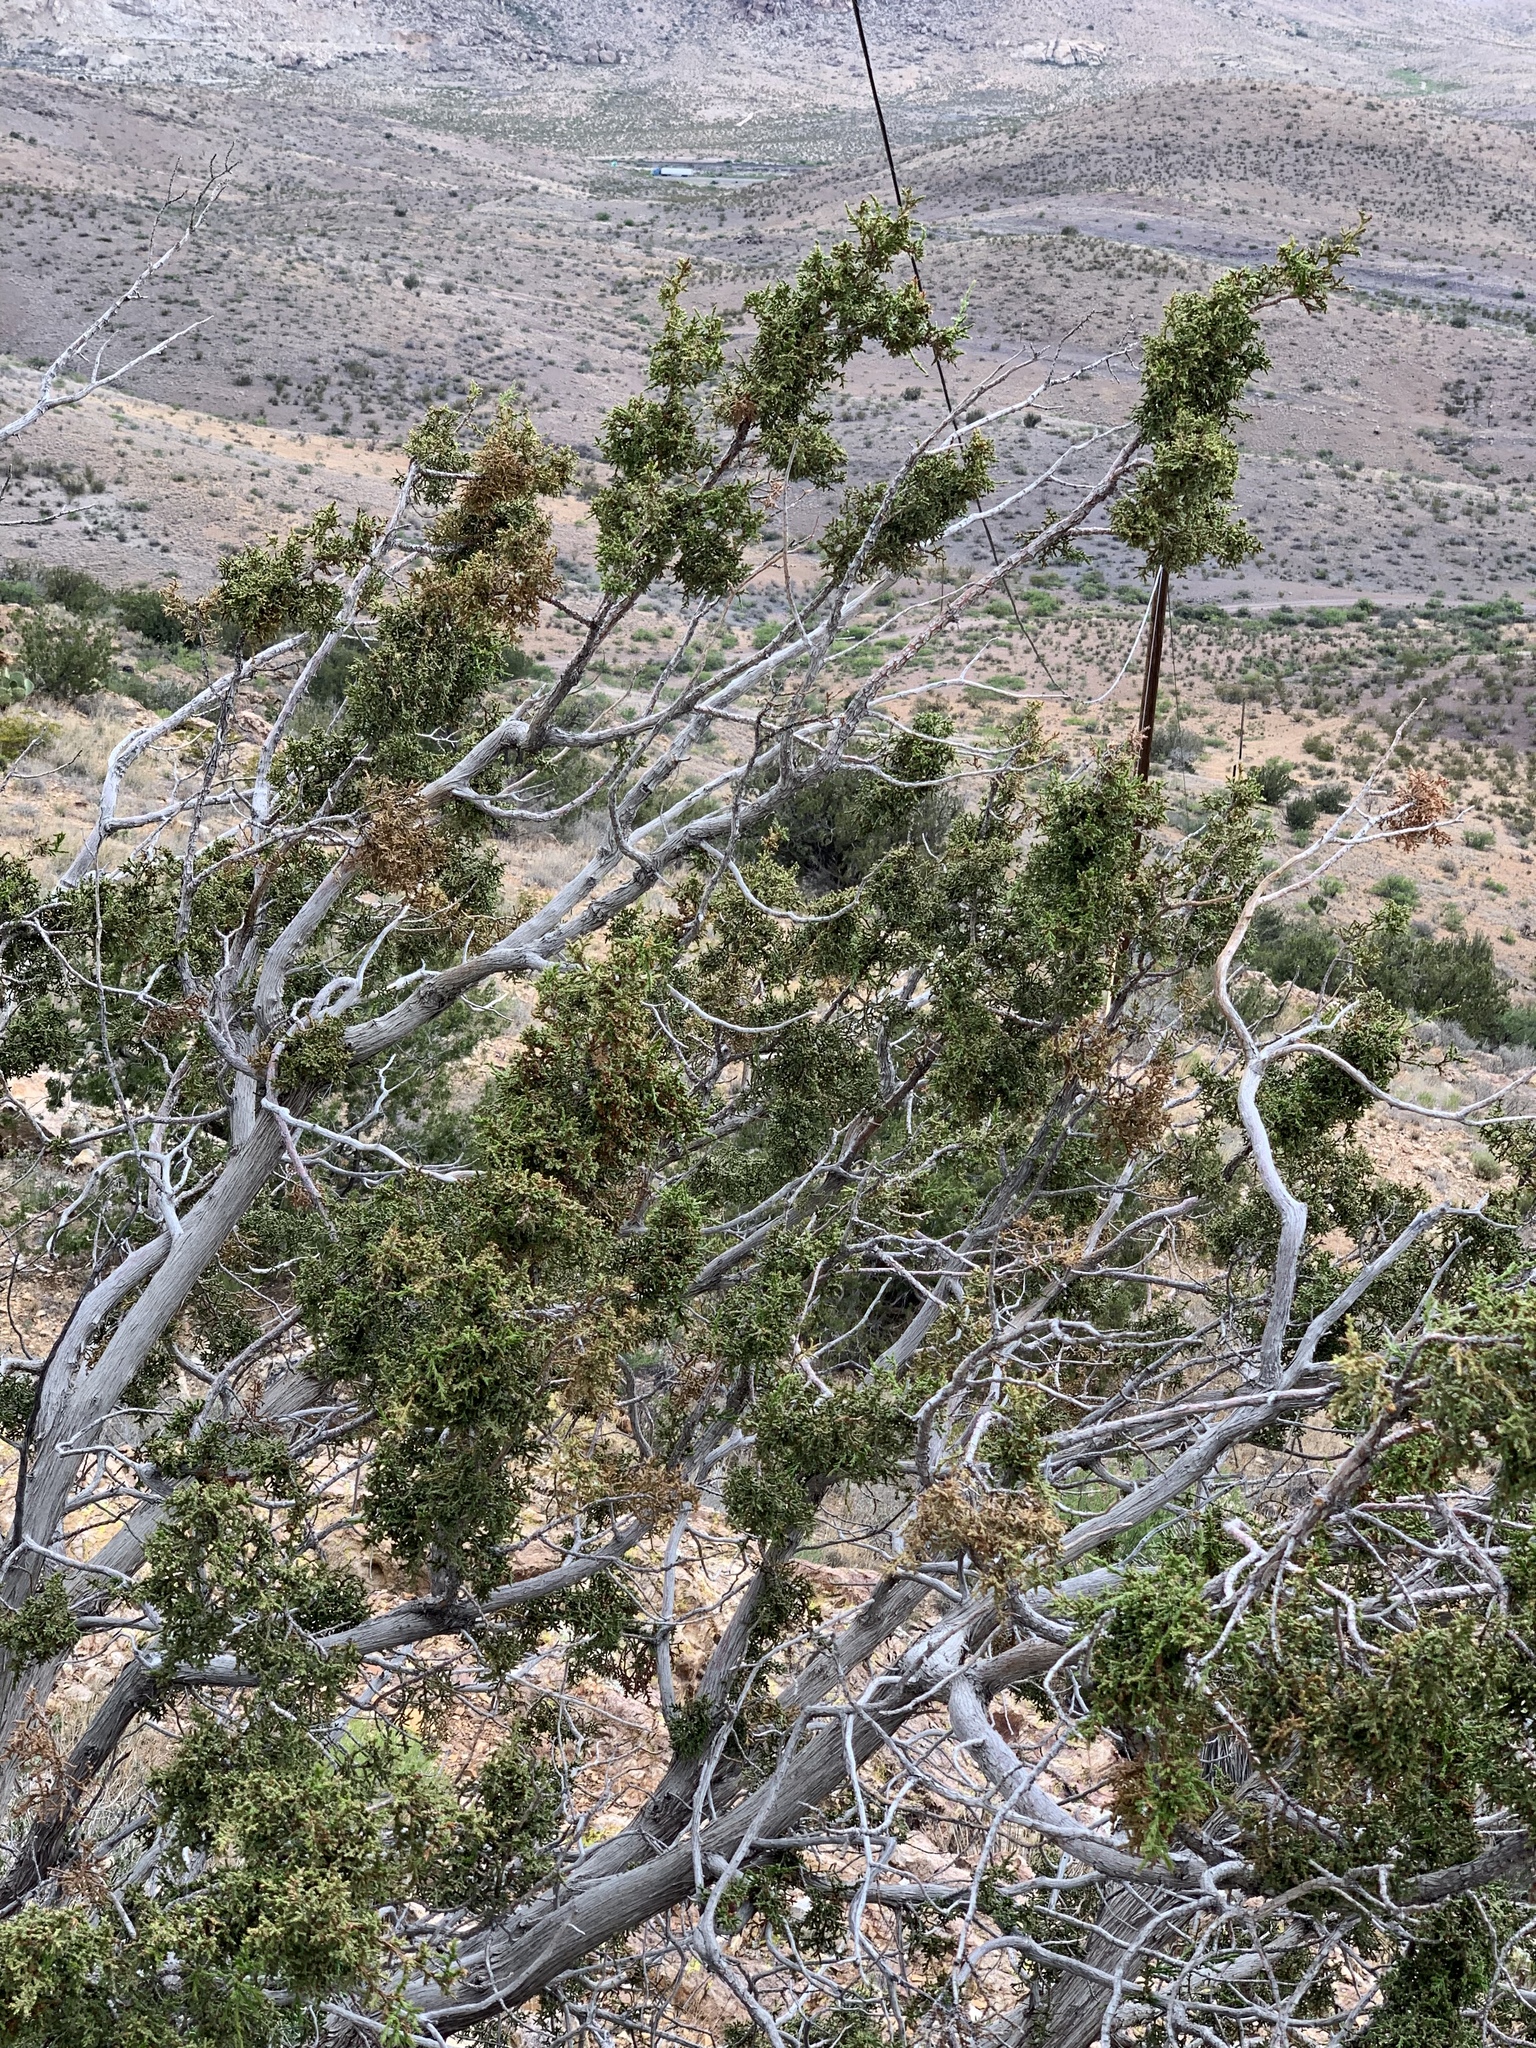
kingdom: Plantae
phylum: Tracheophyta
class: Pinopsida
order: Pinales
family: Cupressaceae
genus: Juniperus
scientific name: Juniperus monosperma
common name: One-seed juniper
